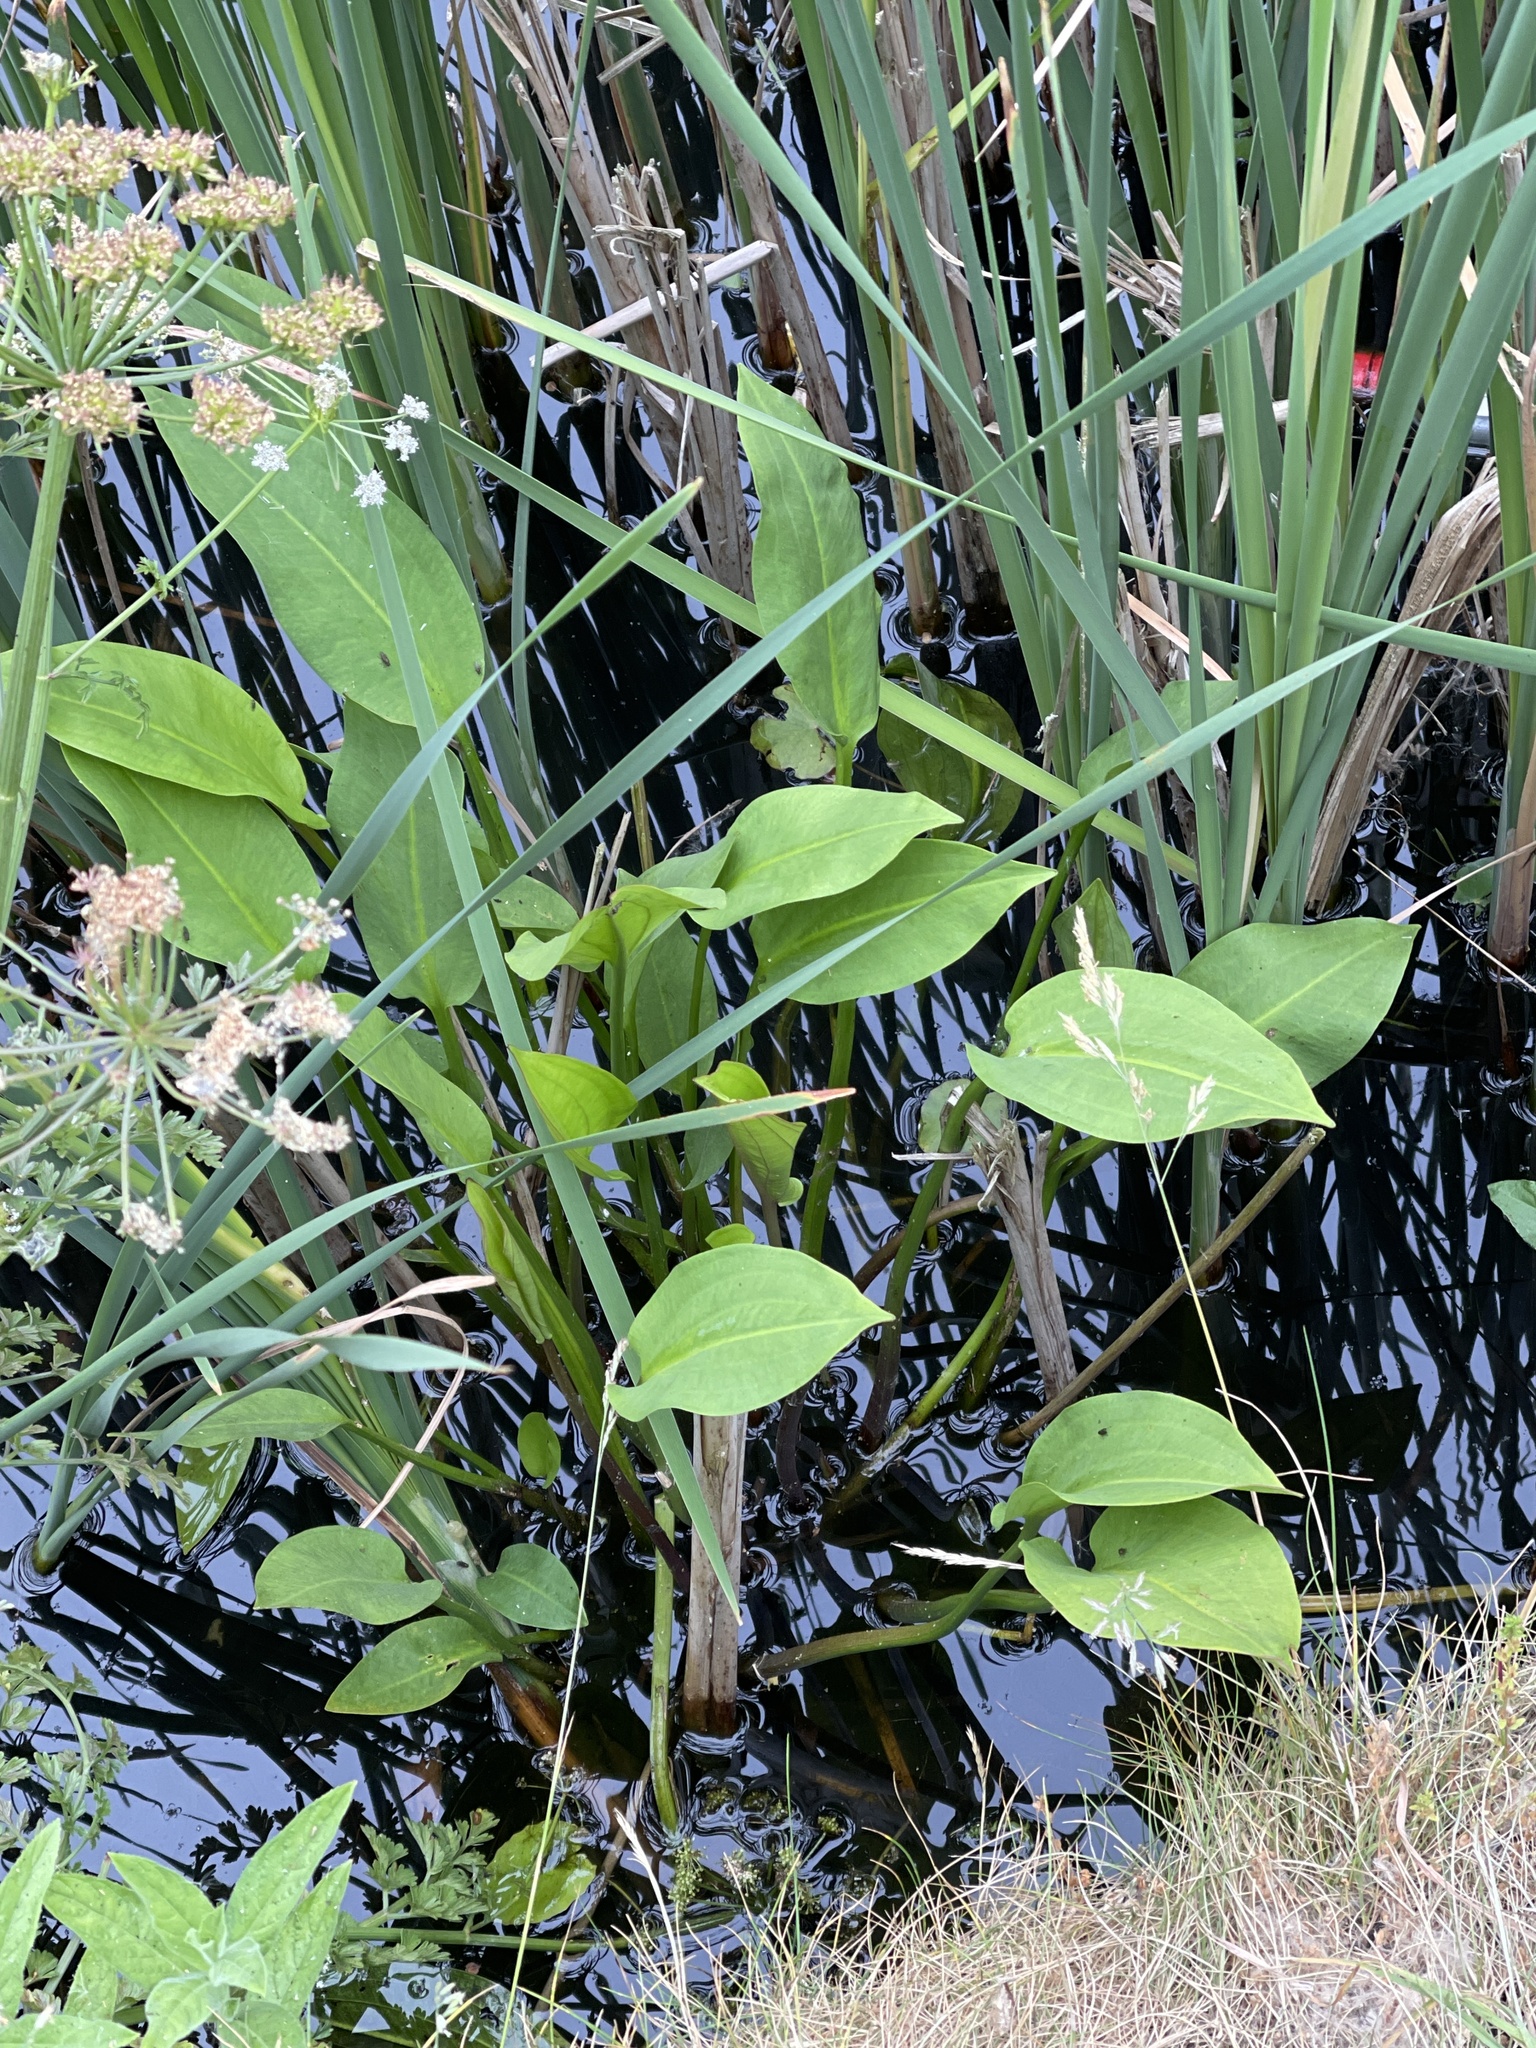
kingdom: Plantae
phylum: Tracheophyta
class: Liliopsida
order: Alismatales
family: Alismataceae
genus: Alisma
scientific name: Alisma plantago-aquatica
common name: Water-plantain
